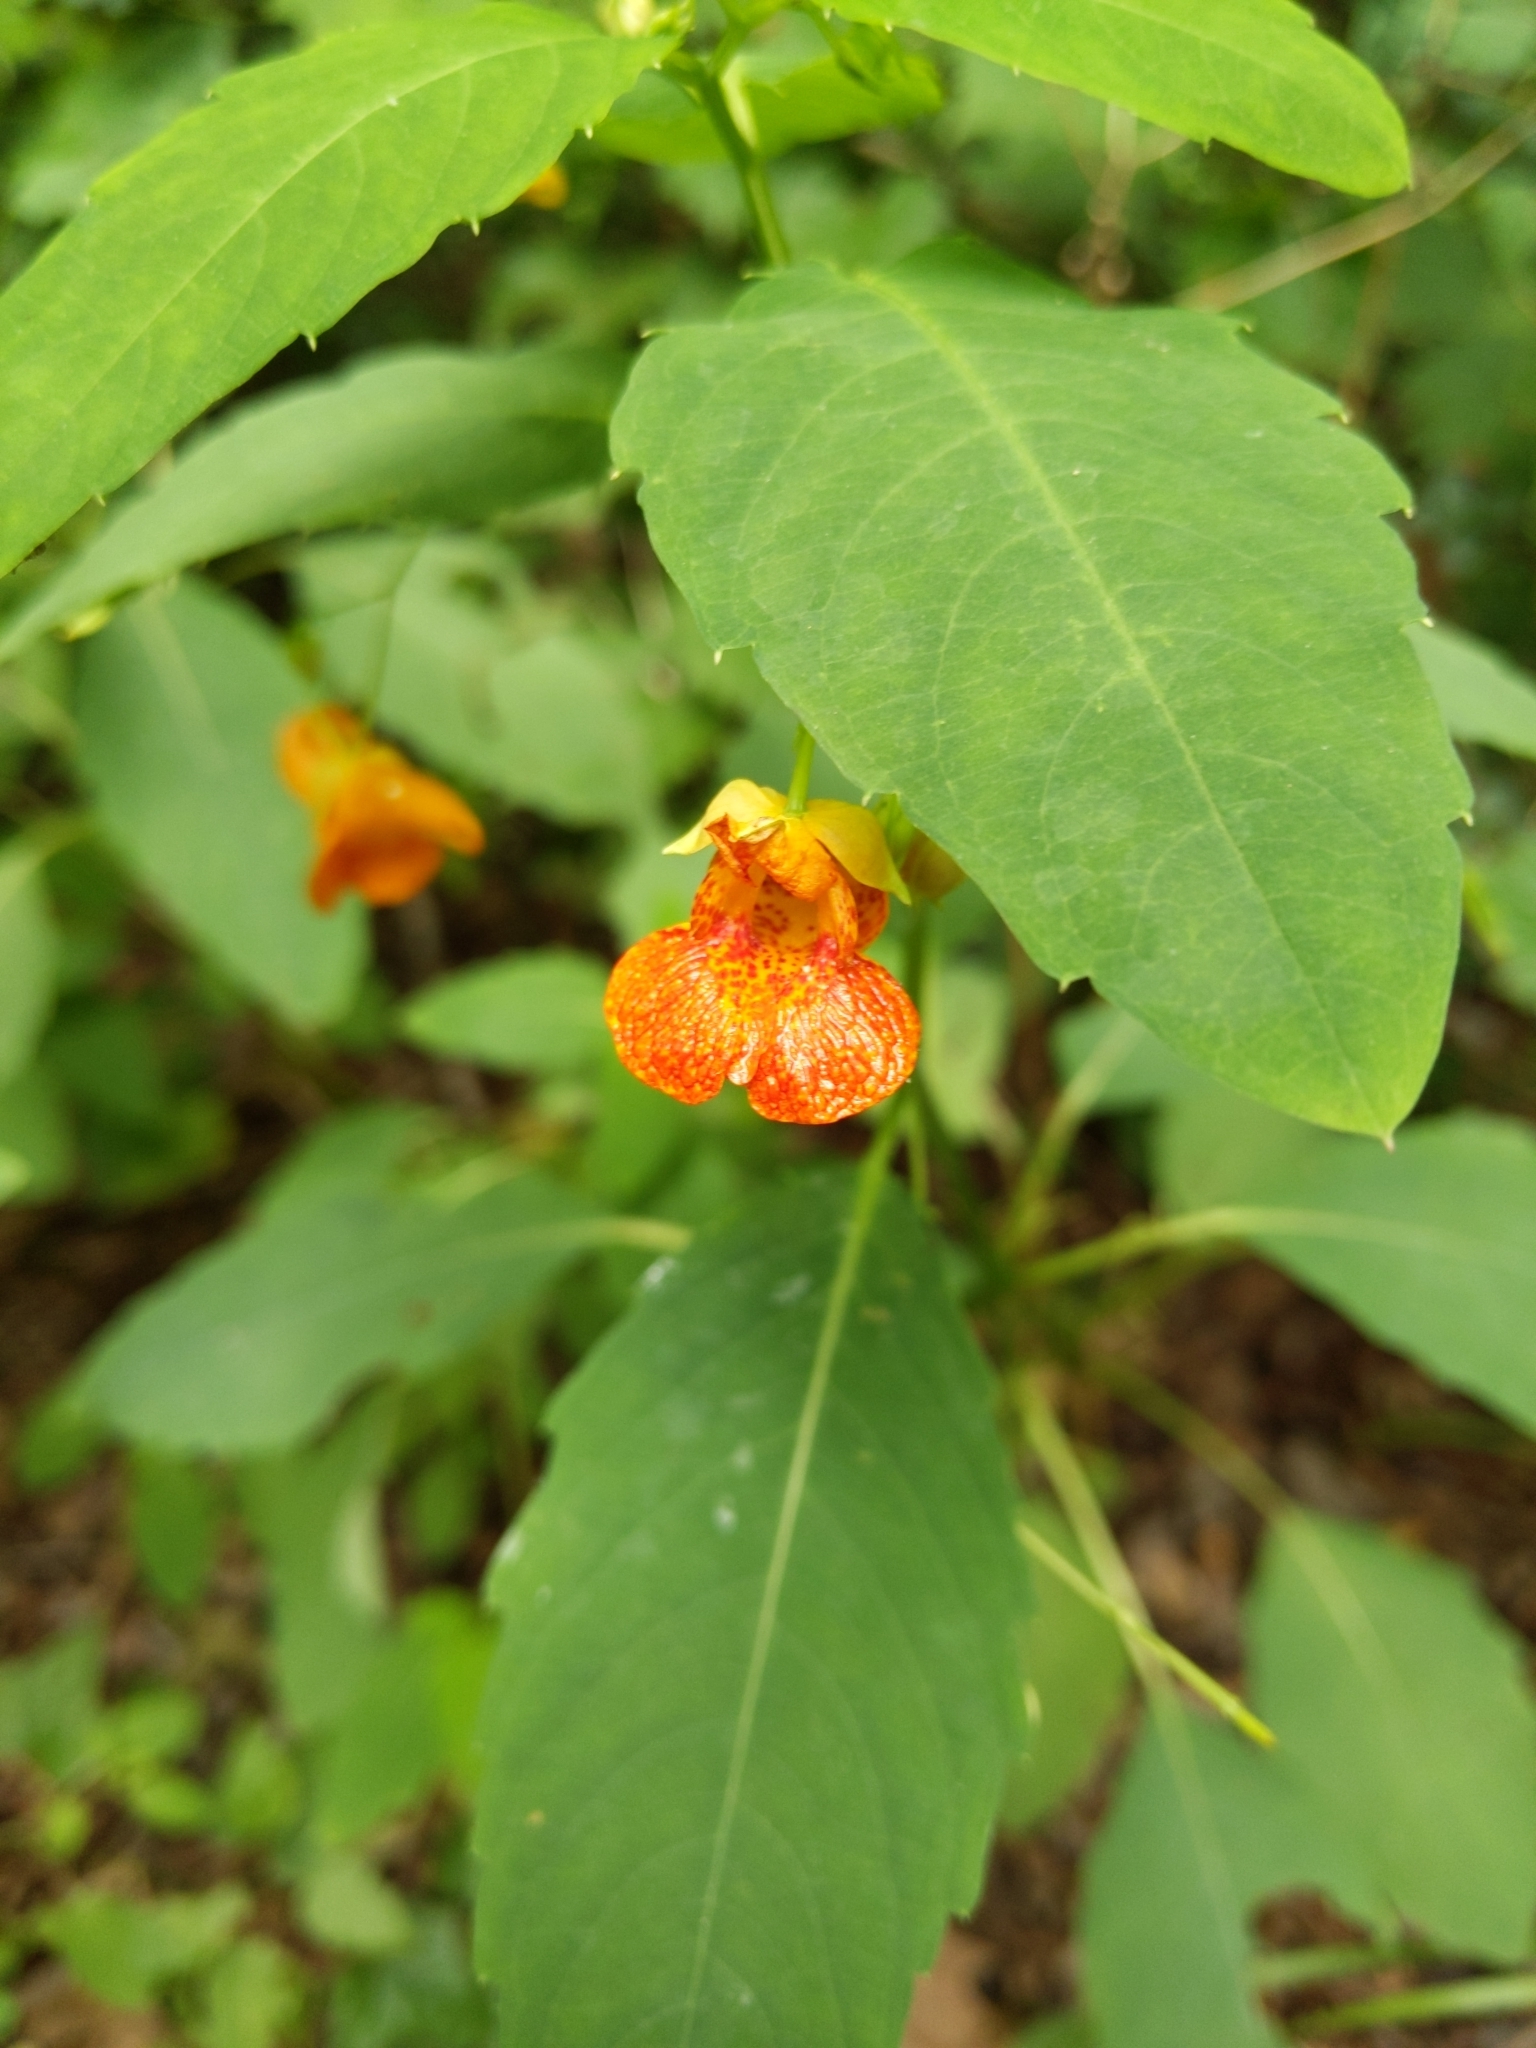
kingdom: Plantae
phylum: Tracheophyta
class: Magnoliopsida
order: Ericales
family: Balsaminaceae
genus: Impatiens
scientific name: Impatiens capensis
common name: Orange balsam
